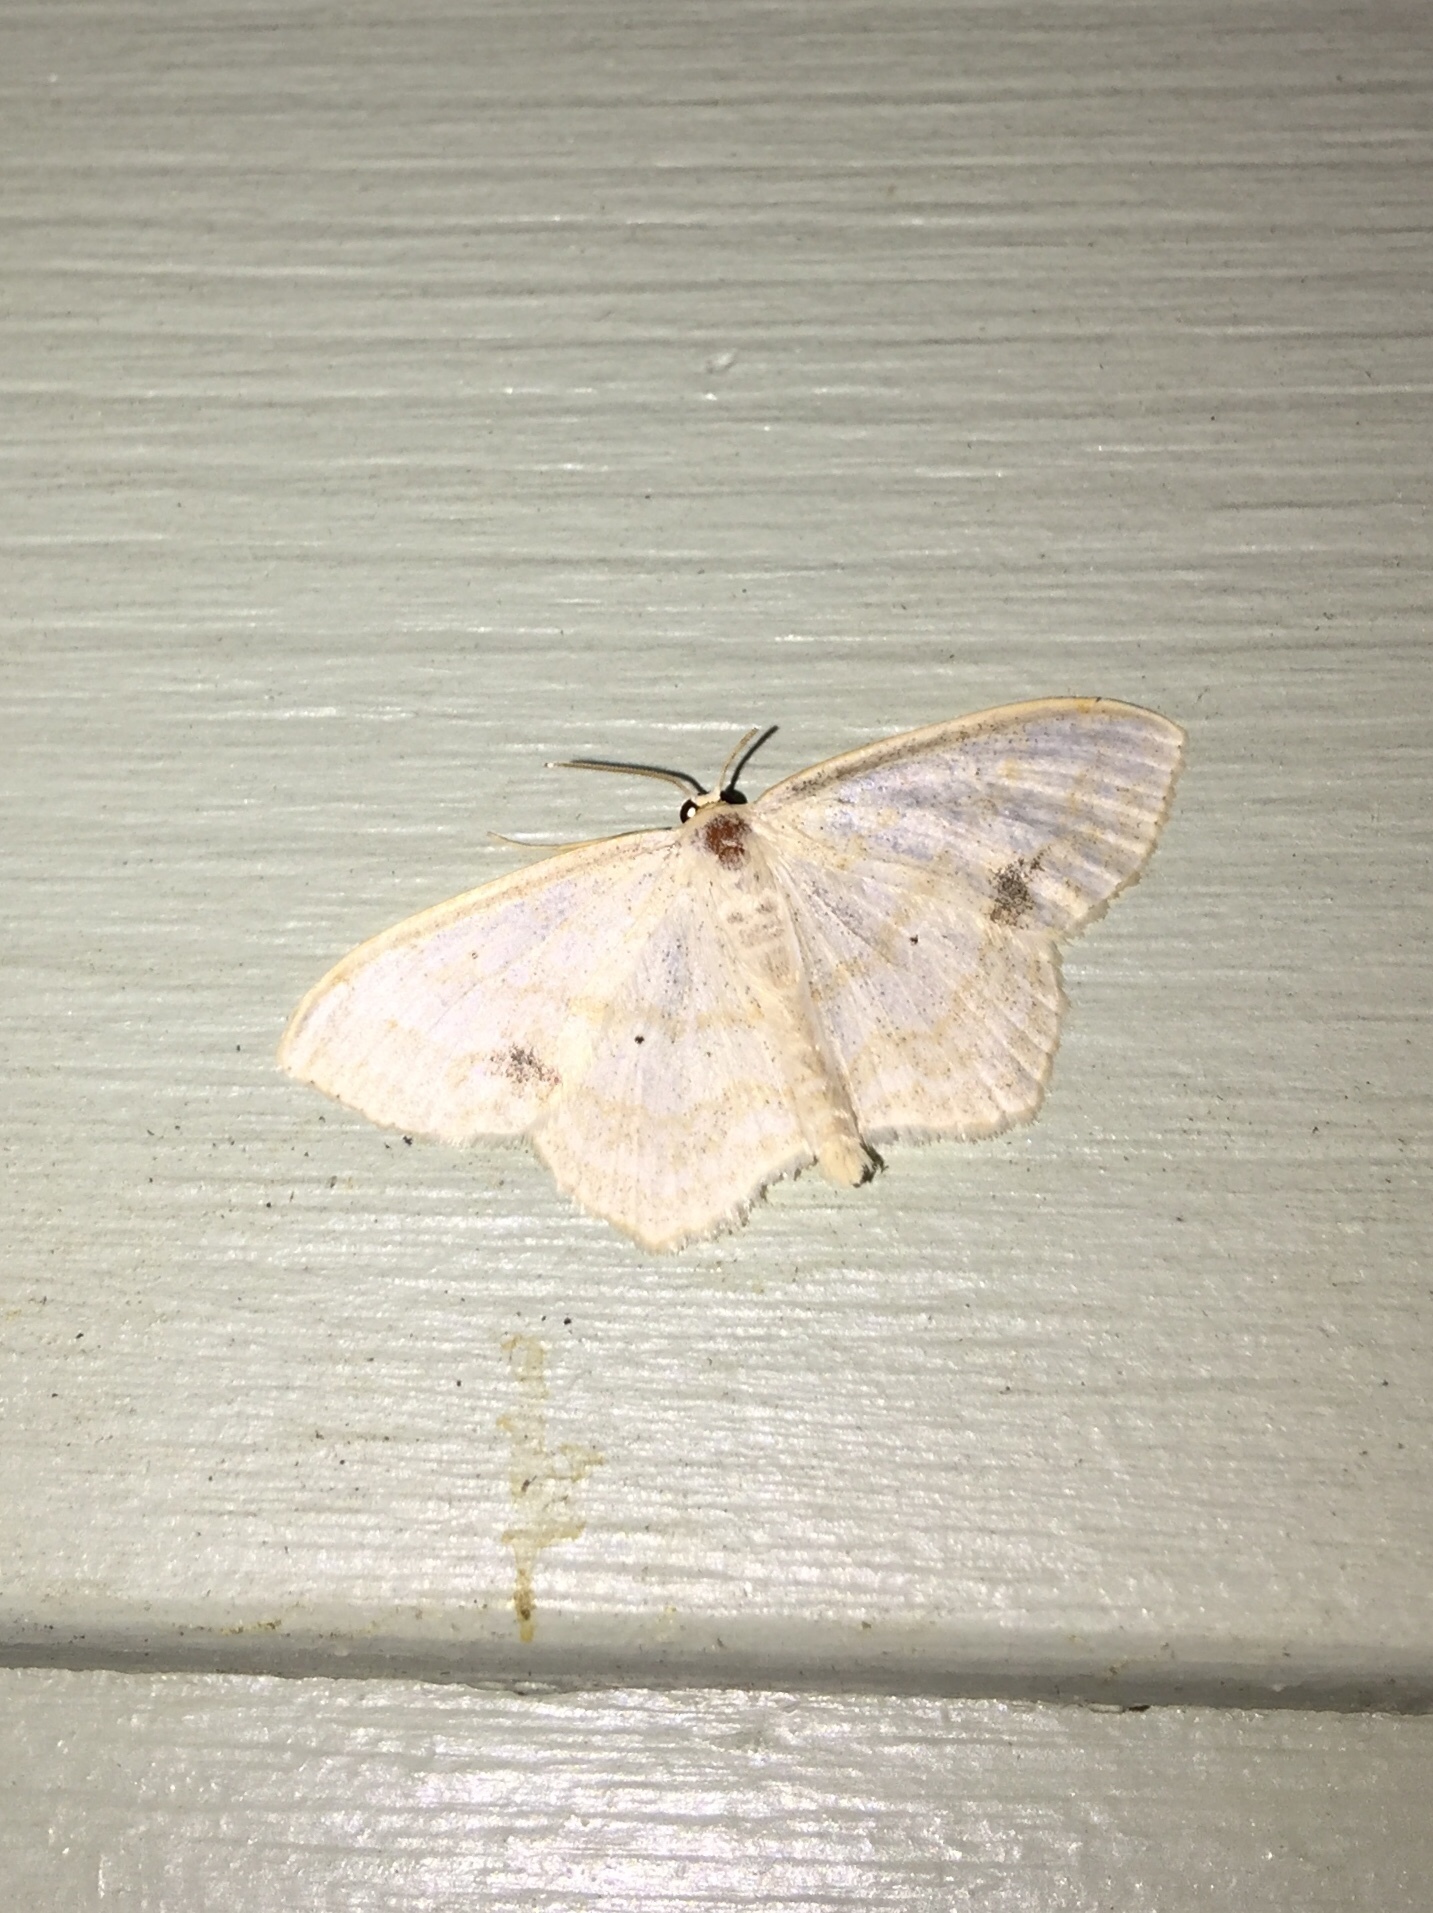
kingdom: Animalia
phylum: Arthropoda
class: Insecta
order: Lepidoptera
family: Geometridae
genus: Scopula
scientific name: Scopula limboundata
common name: Large lace border
